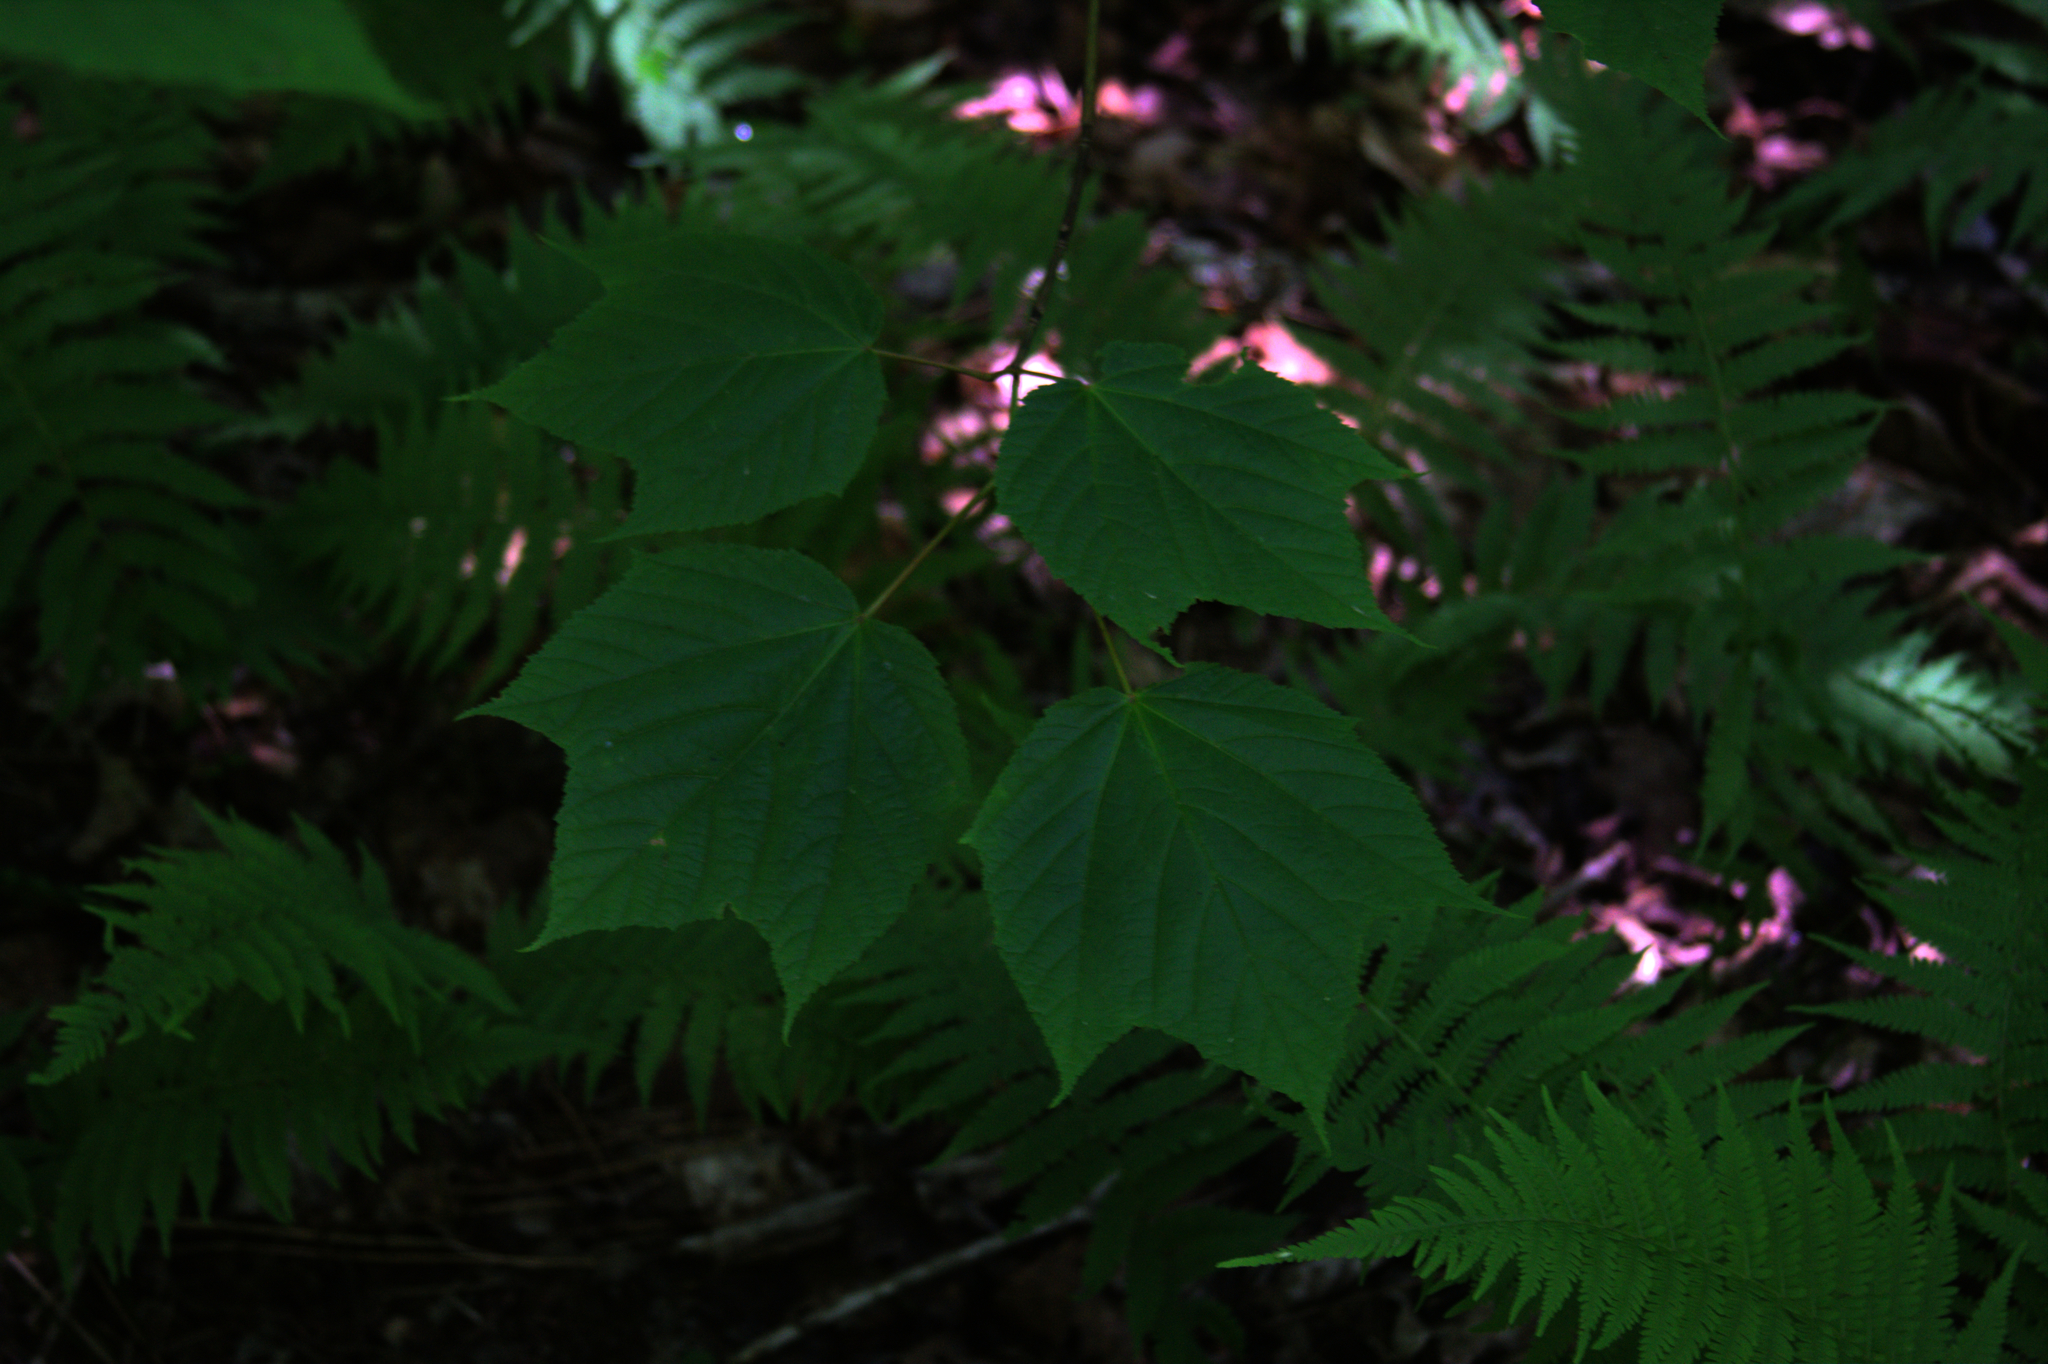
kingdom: Plantae
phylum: Tracheophyta
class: Magnoliopsida
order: Sapindales
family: Sapindaceae
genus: Acer
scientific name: Acer pensylvanicum
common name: Moosewood
